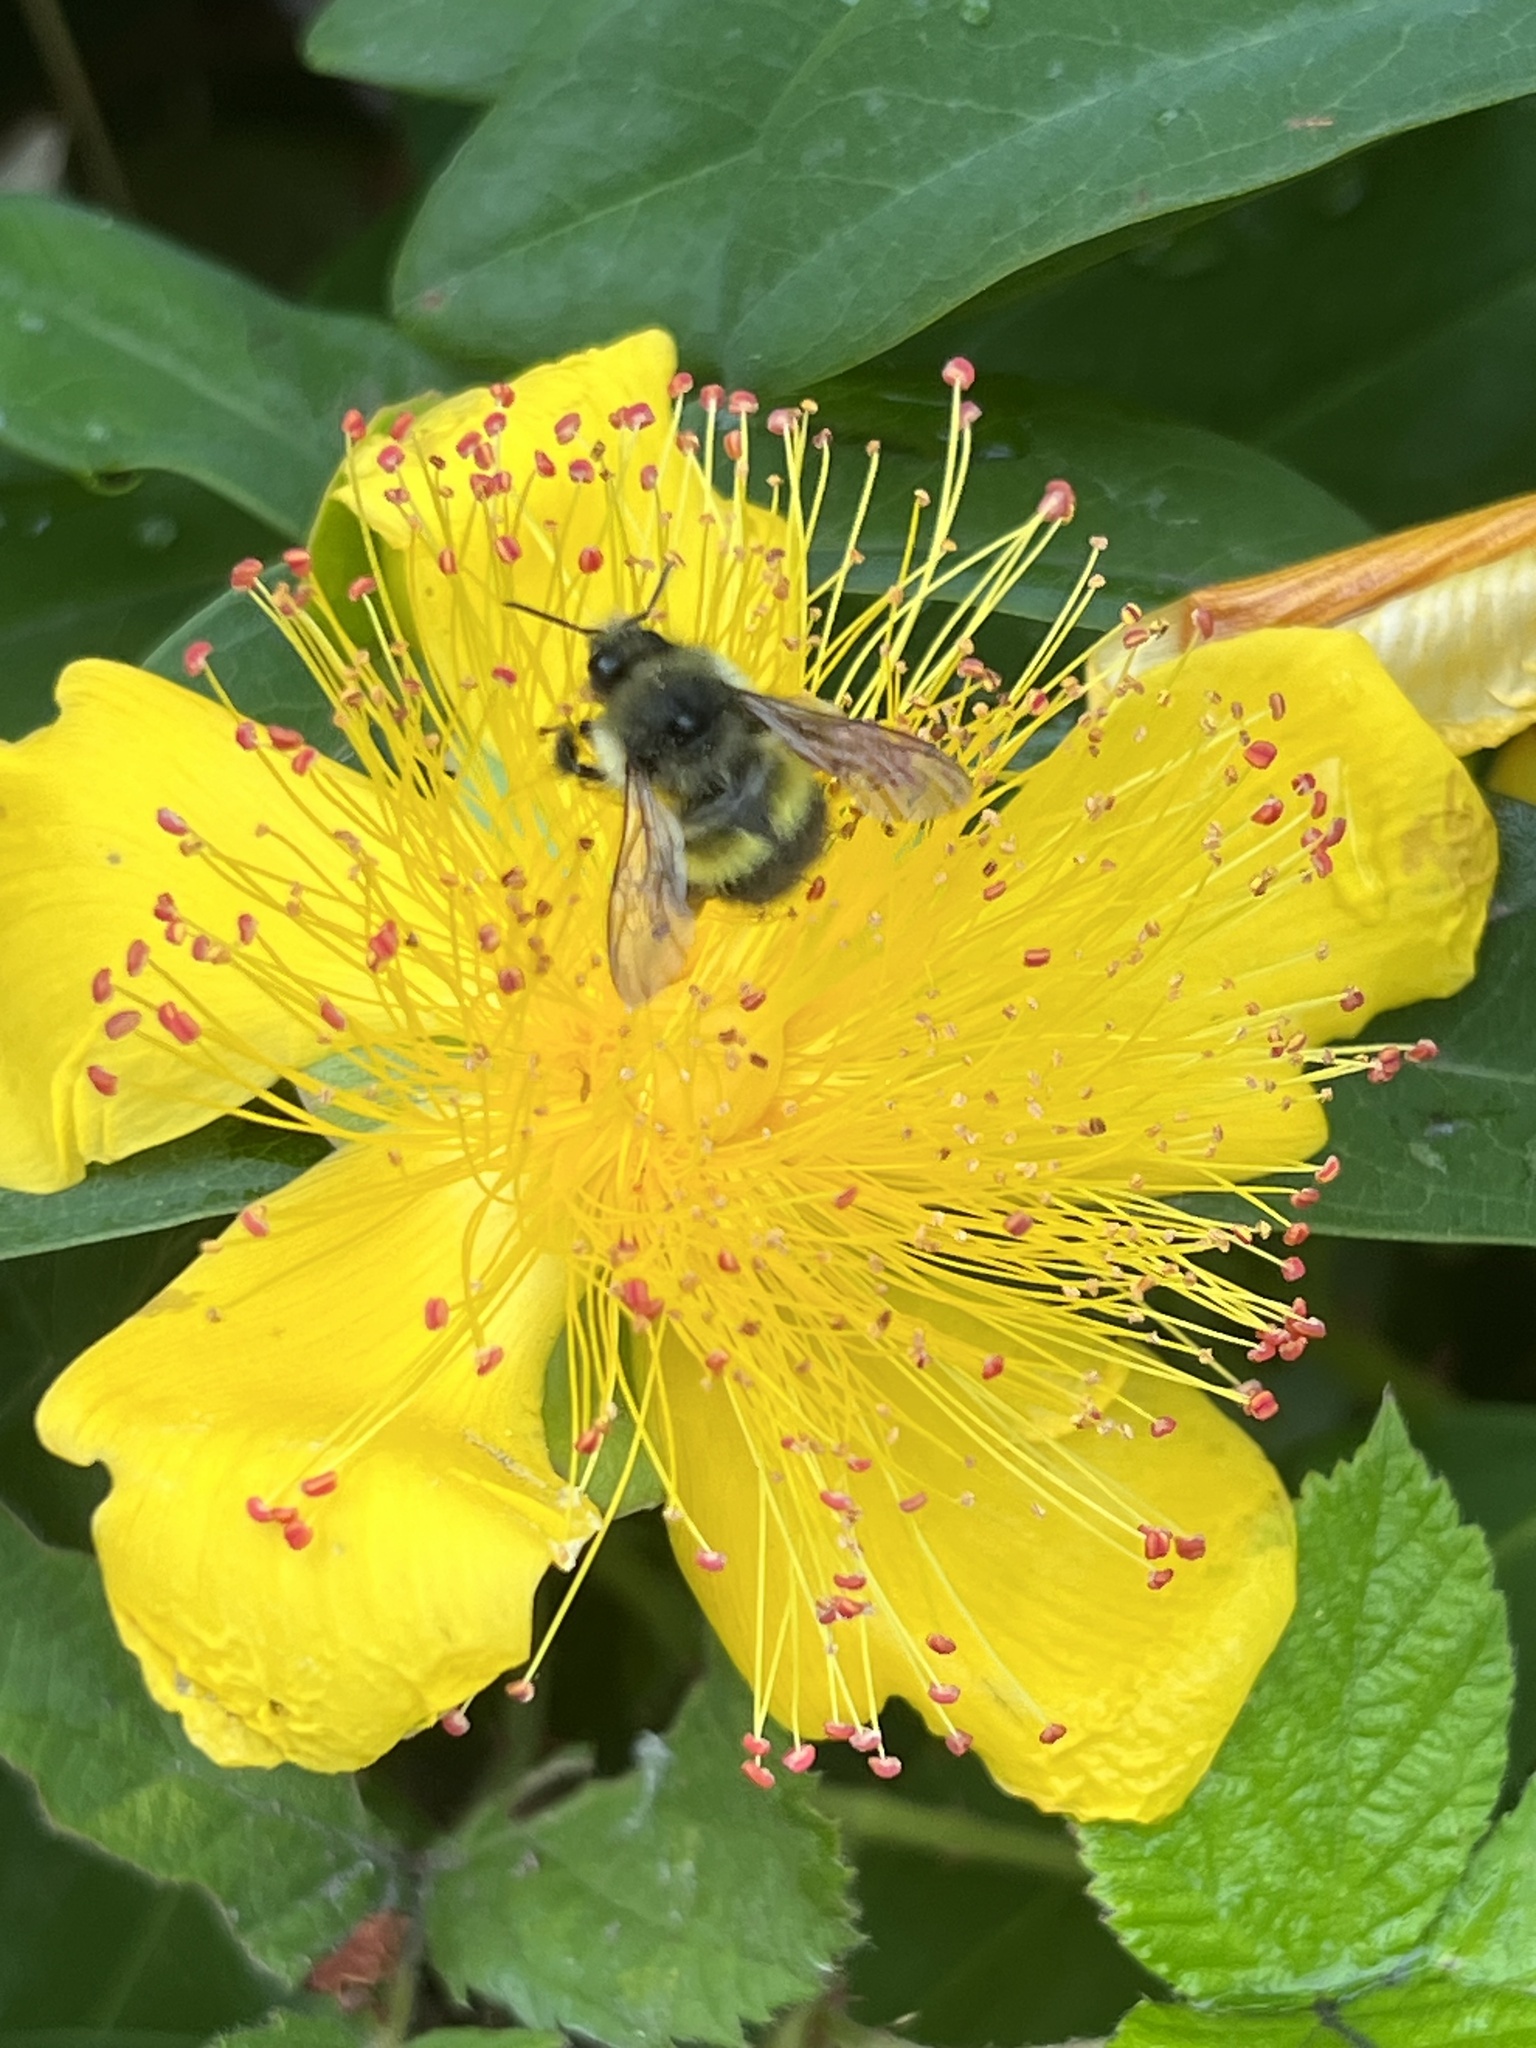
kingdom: Animalia
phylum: Arthropoda
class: Insecta
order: Hymenoptera
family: Apidae
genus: Bombus
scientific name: Bombus flavifrons
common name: Yellow head bumble bee
